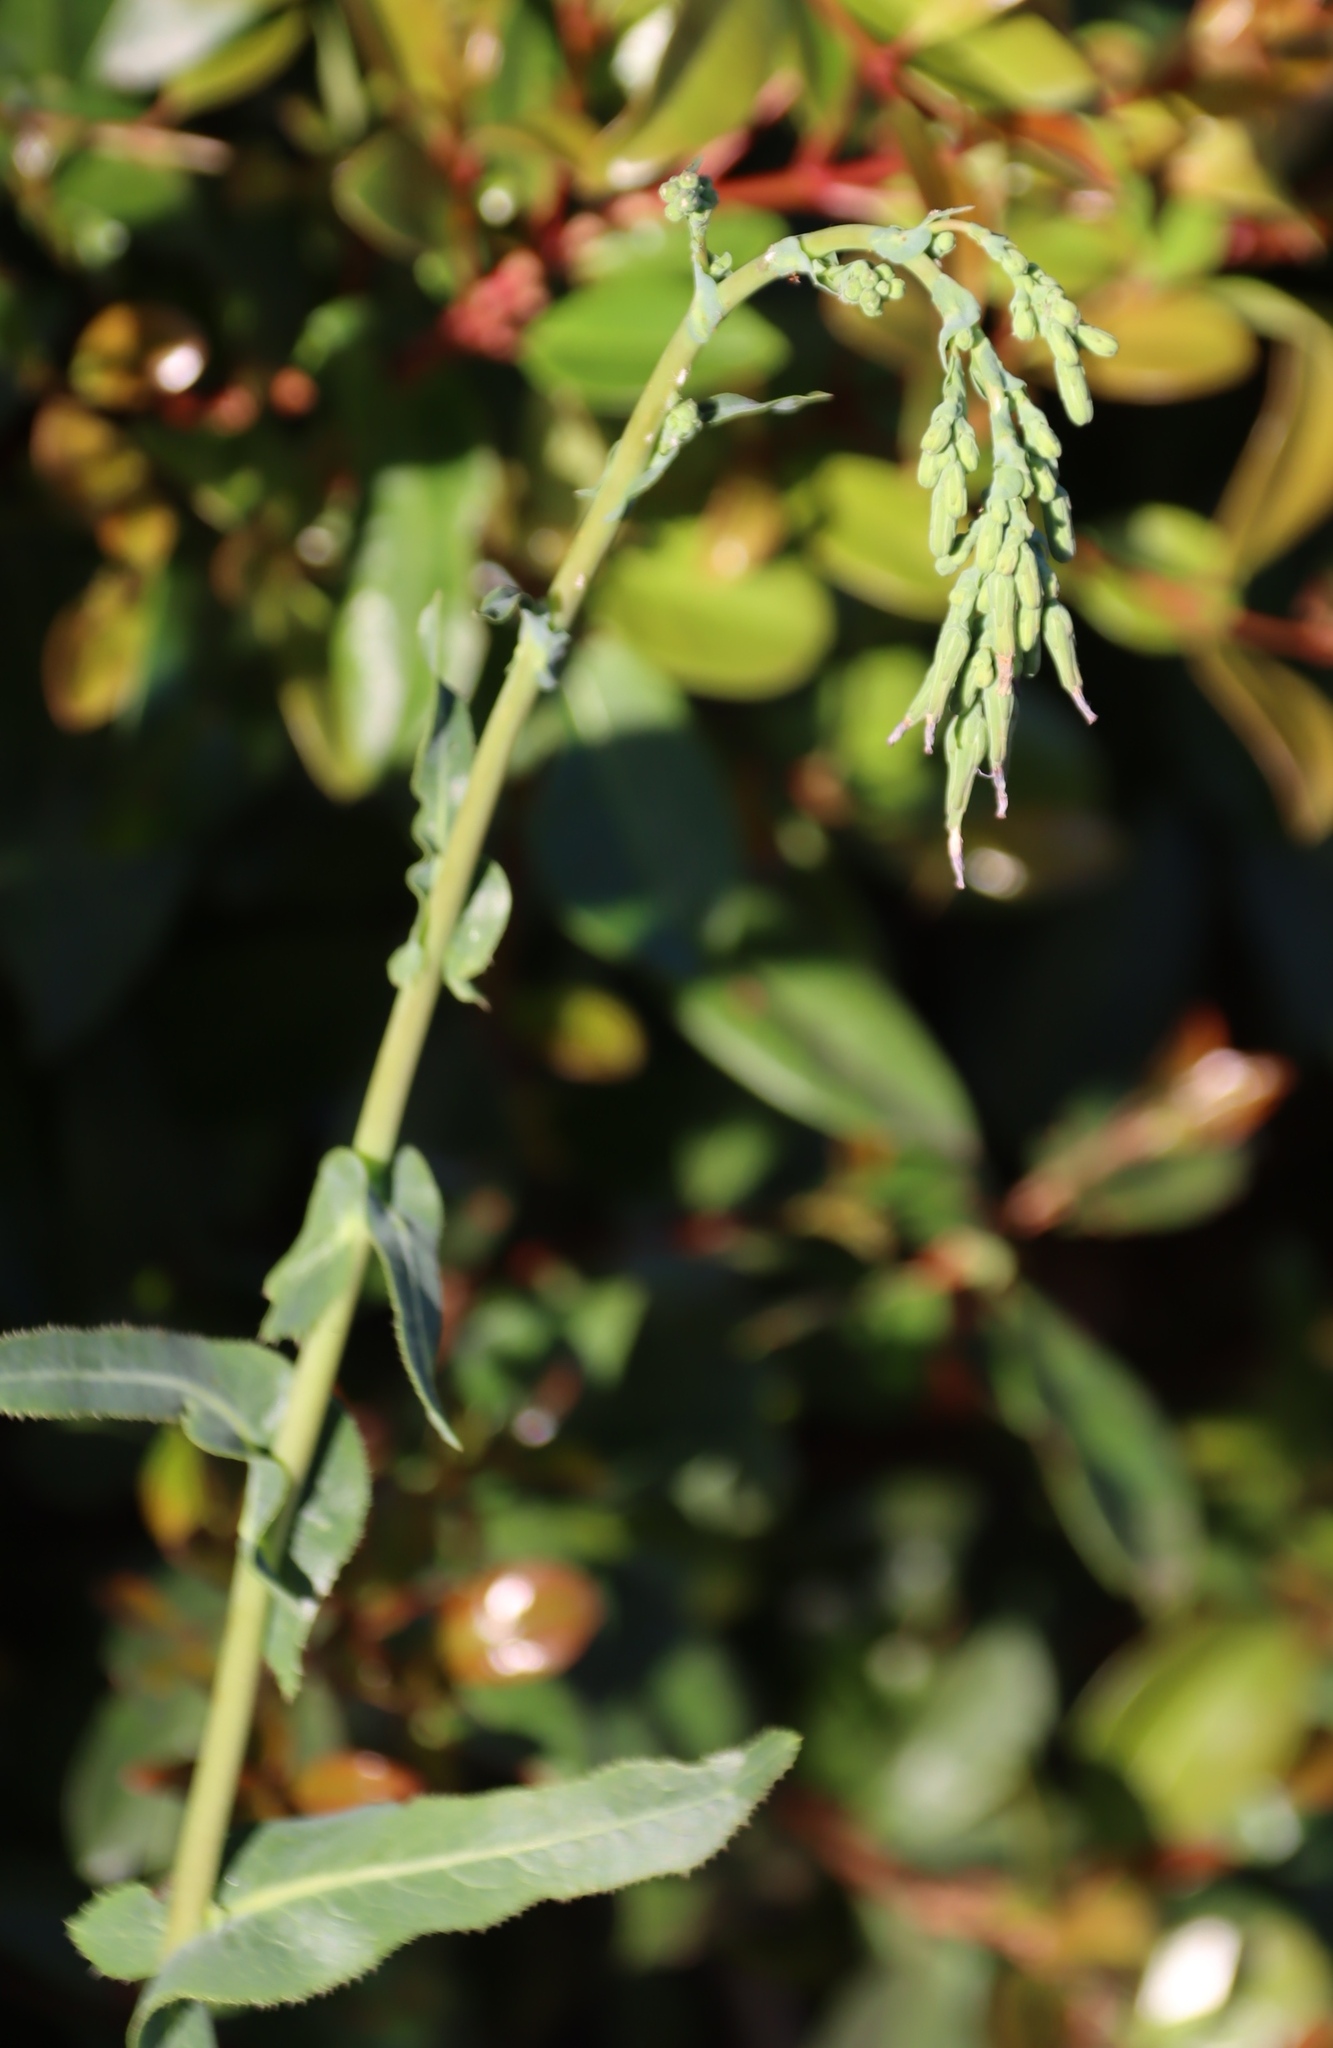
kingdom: Plantae
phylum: Tracheophyta
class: Magnoliopsida
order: Asterales
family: Asteraceae
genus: Lactuca
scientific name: Lactuca serriola
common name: Prickly lettuce
